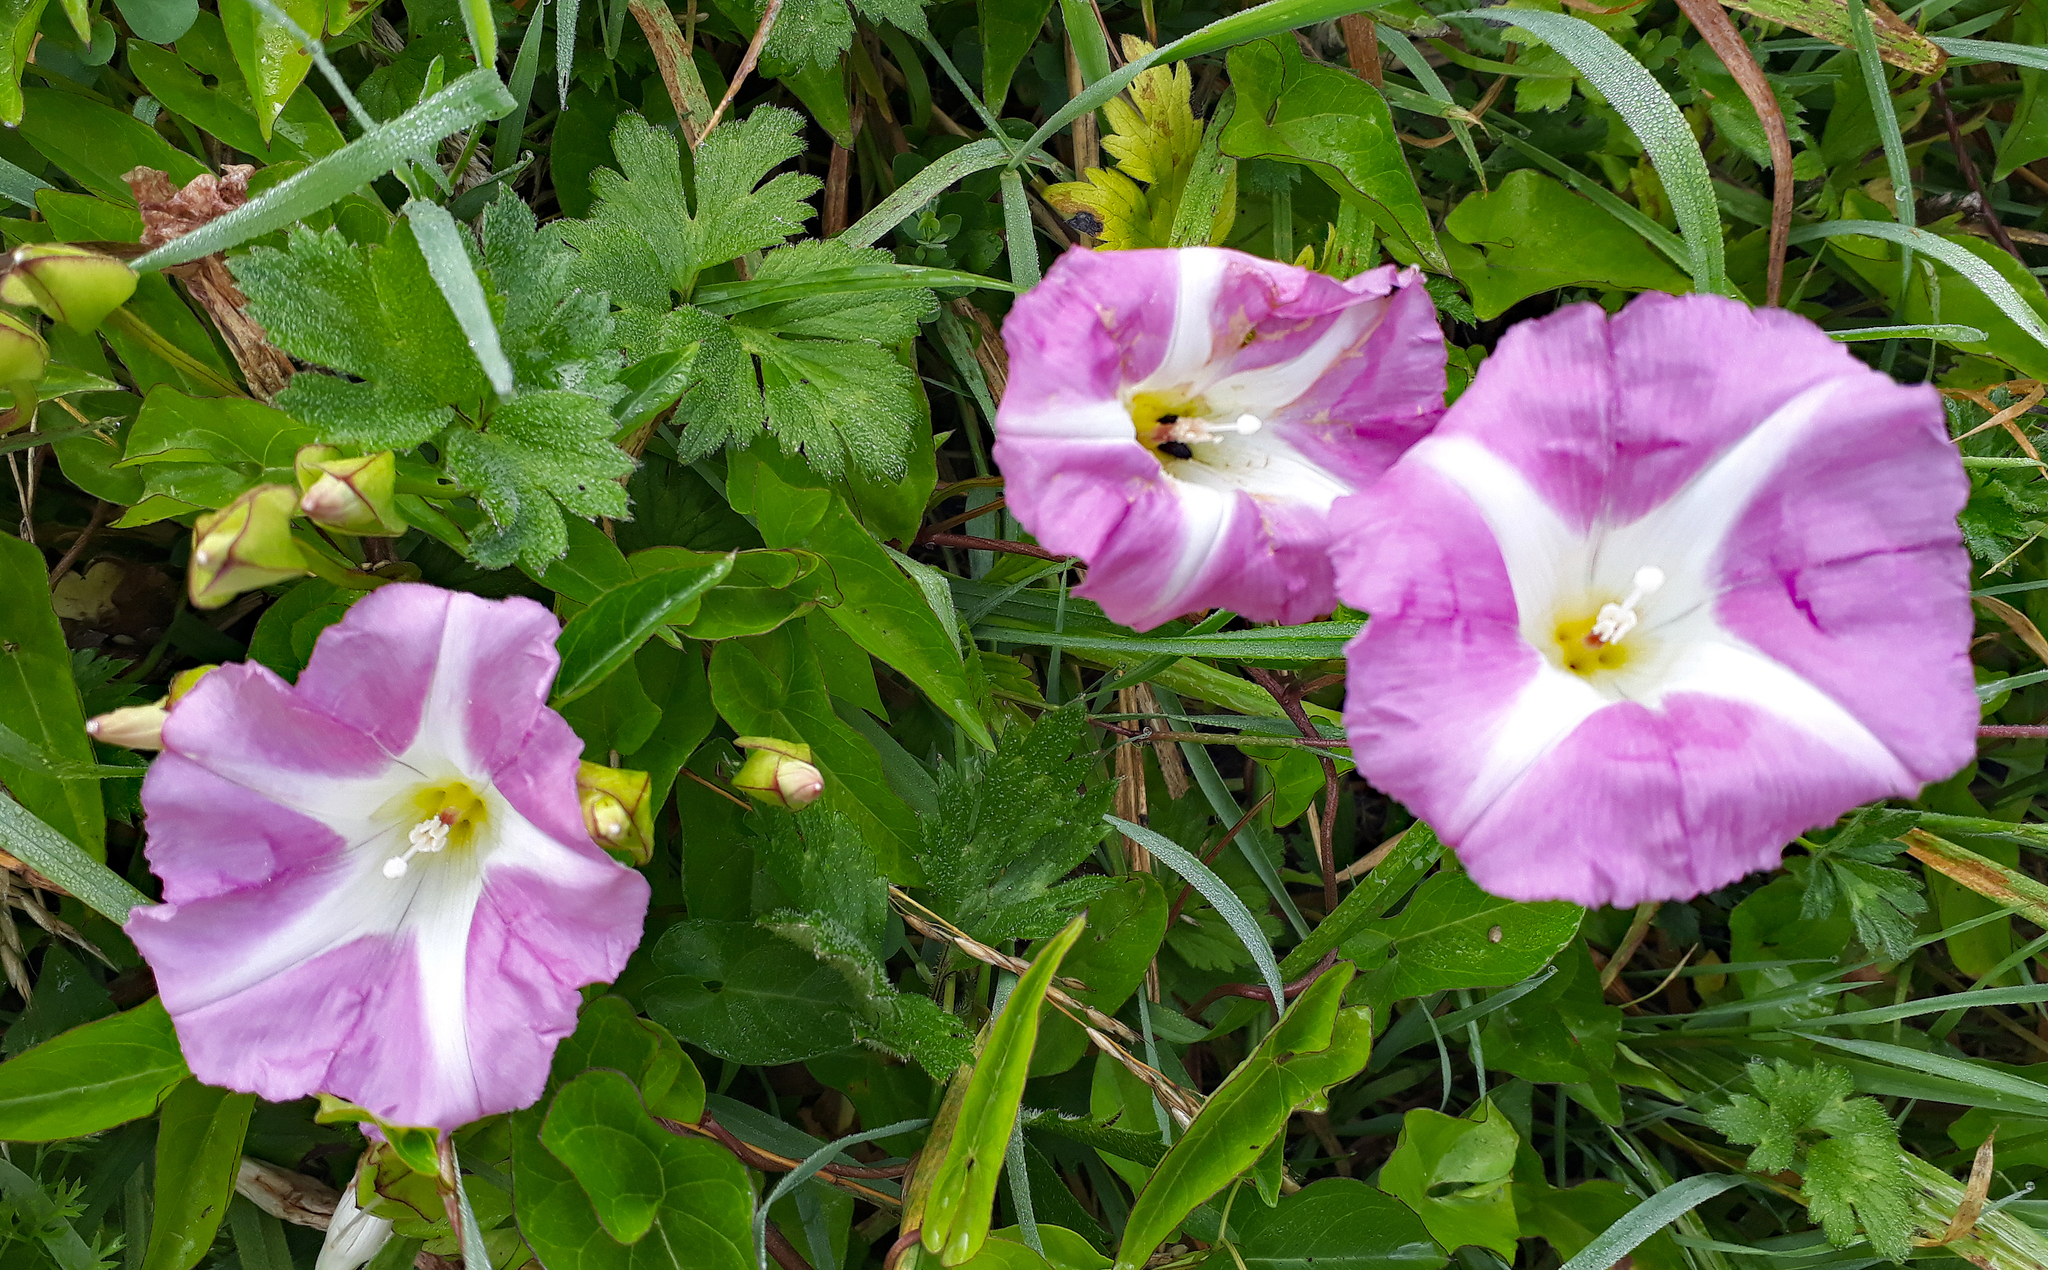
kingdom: Plantae
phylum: Tracheophyta
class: Magnoliopsida
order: Solanales
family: Convolvulaceae
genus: Calystegia
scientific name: Calystegia sepium
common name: Hedge bindweed
